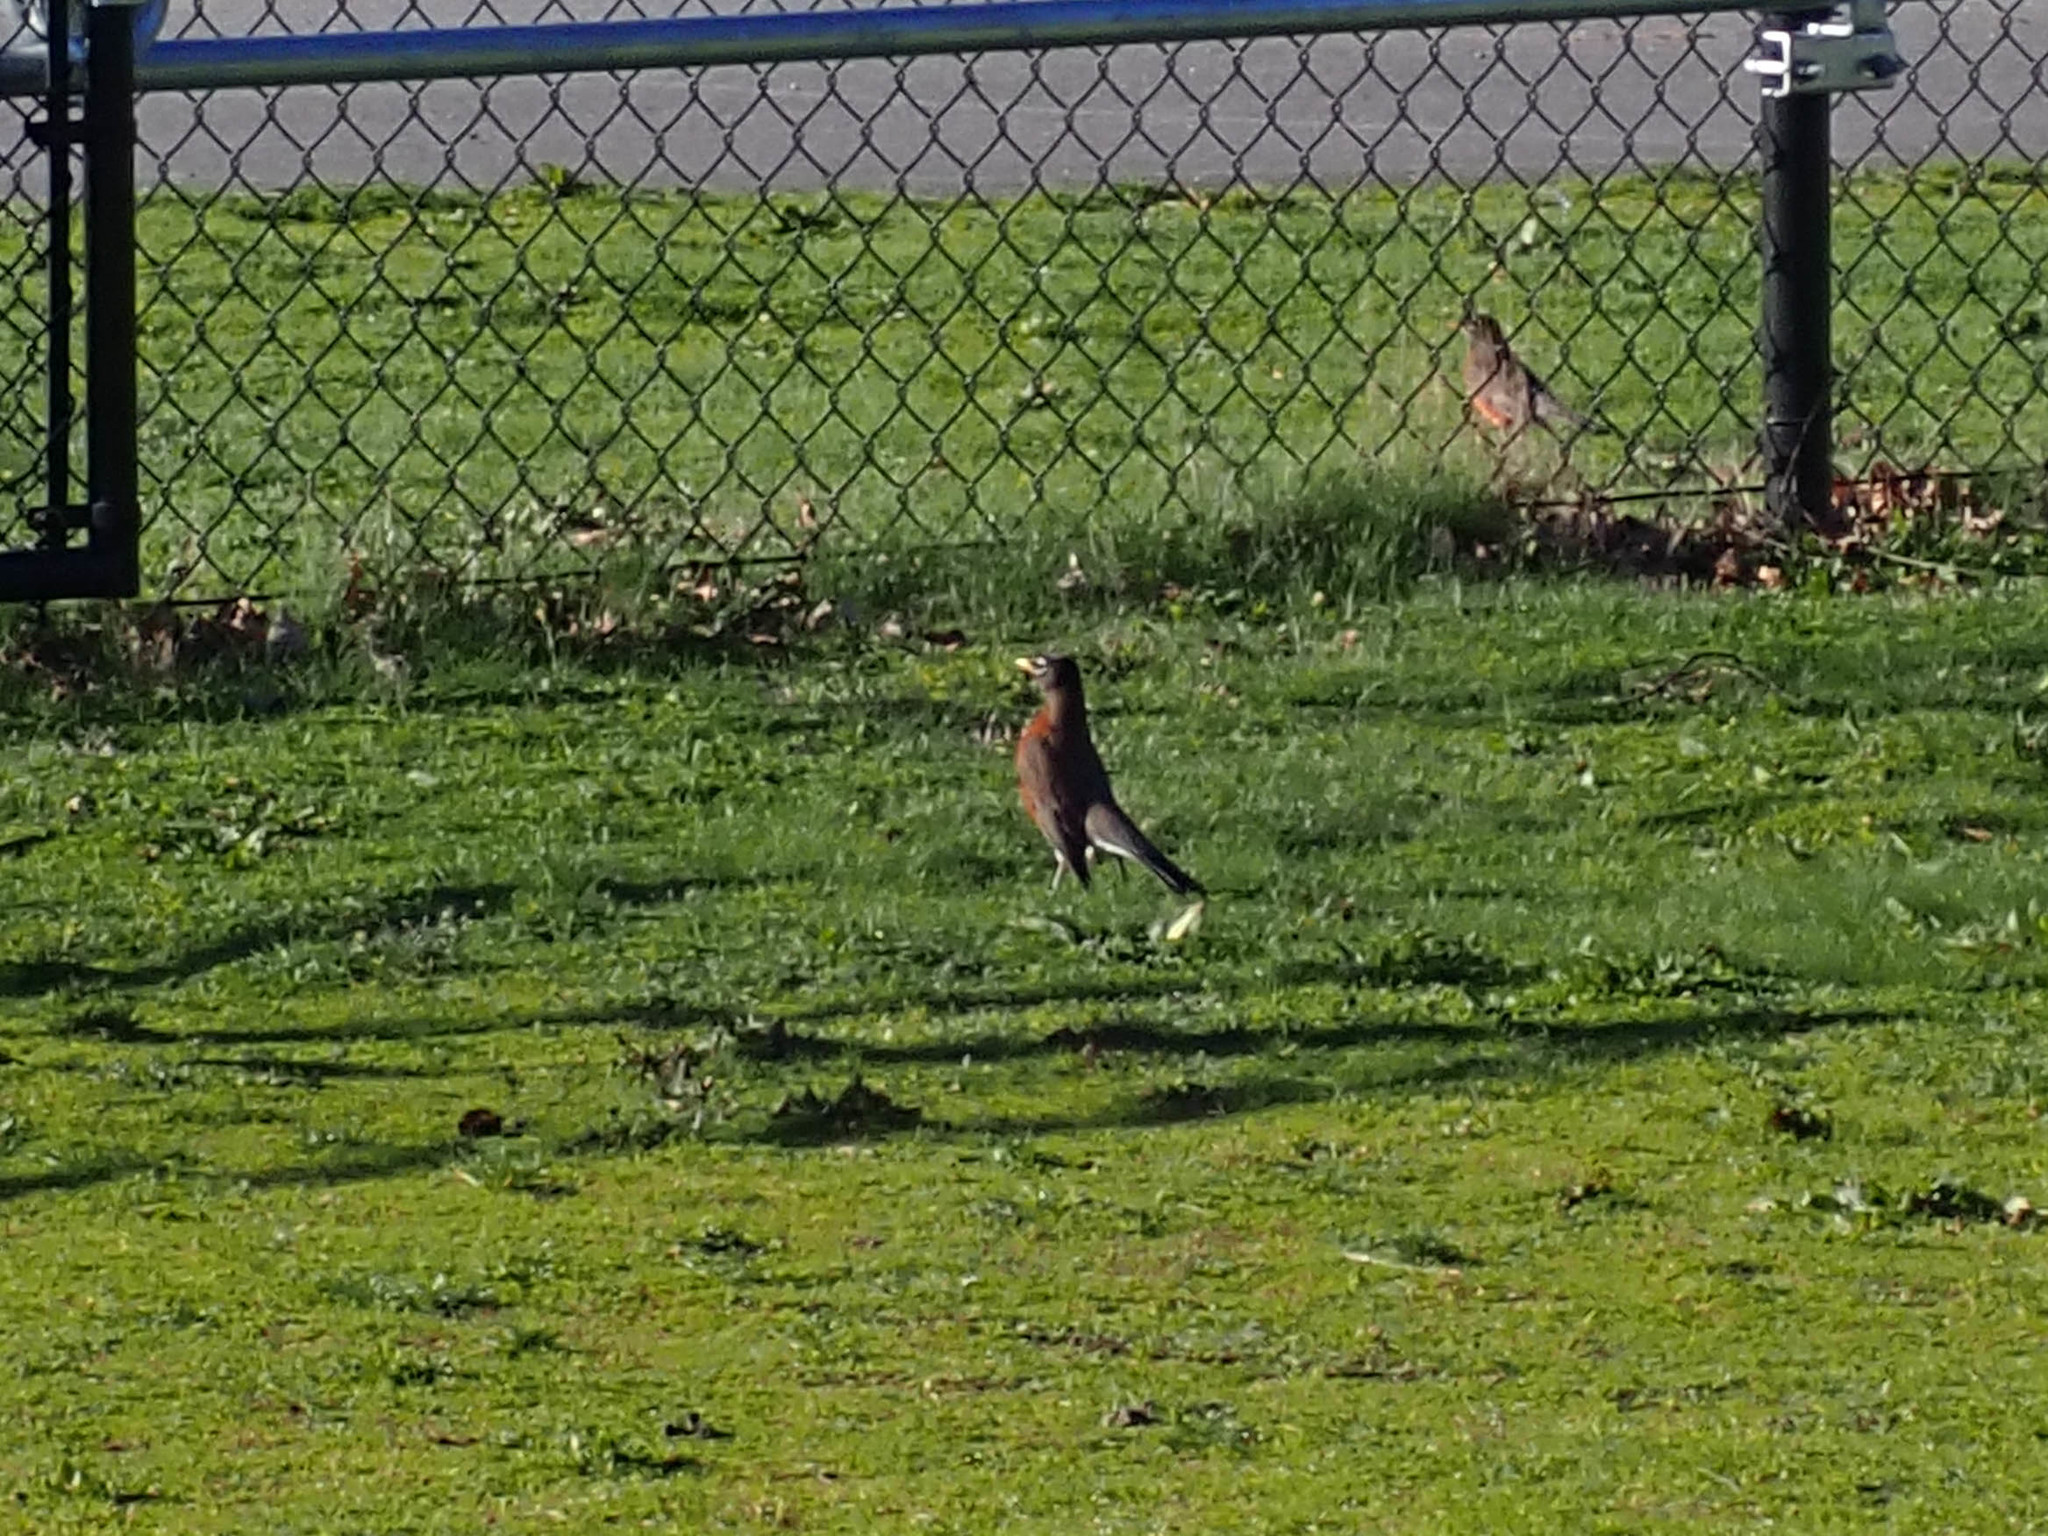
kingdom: Animalia
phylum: Chordata
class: Aves
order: Passeriformes
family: Turdidae
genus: Turdus
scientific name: Turdus migratorius
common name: American robin
